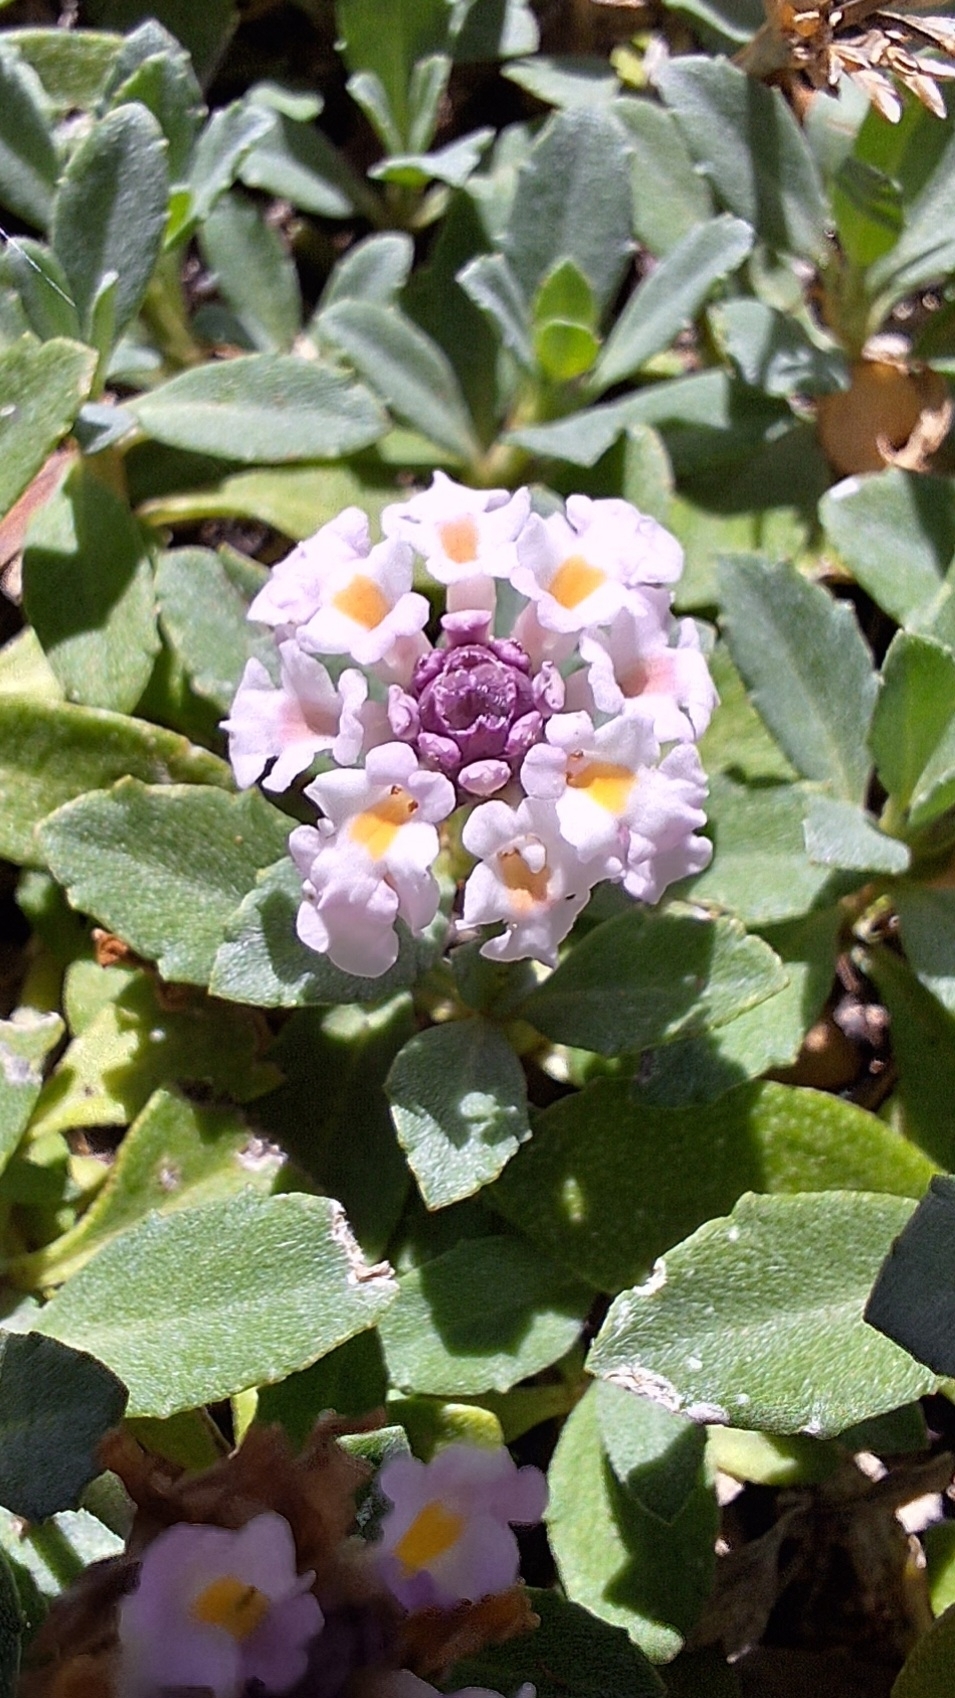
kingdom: Plantae
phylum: Tracheophyta
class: Magnoliopsida
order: Lamiales
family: Verbenaceae
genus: Phyla
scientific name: Phyla nodiflora
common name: Frogfruit
